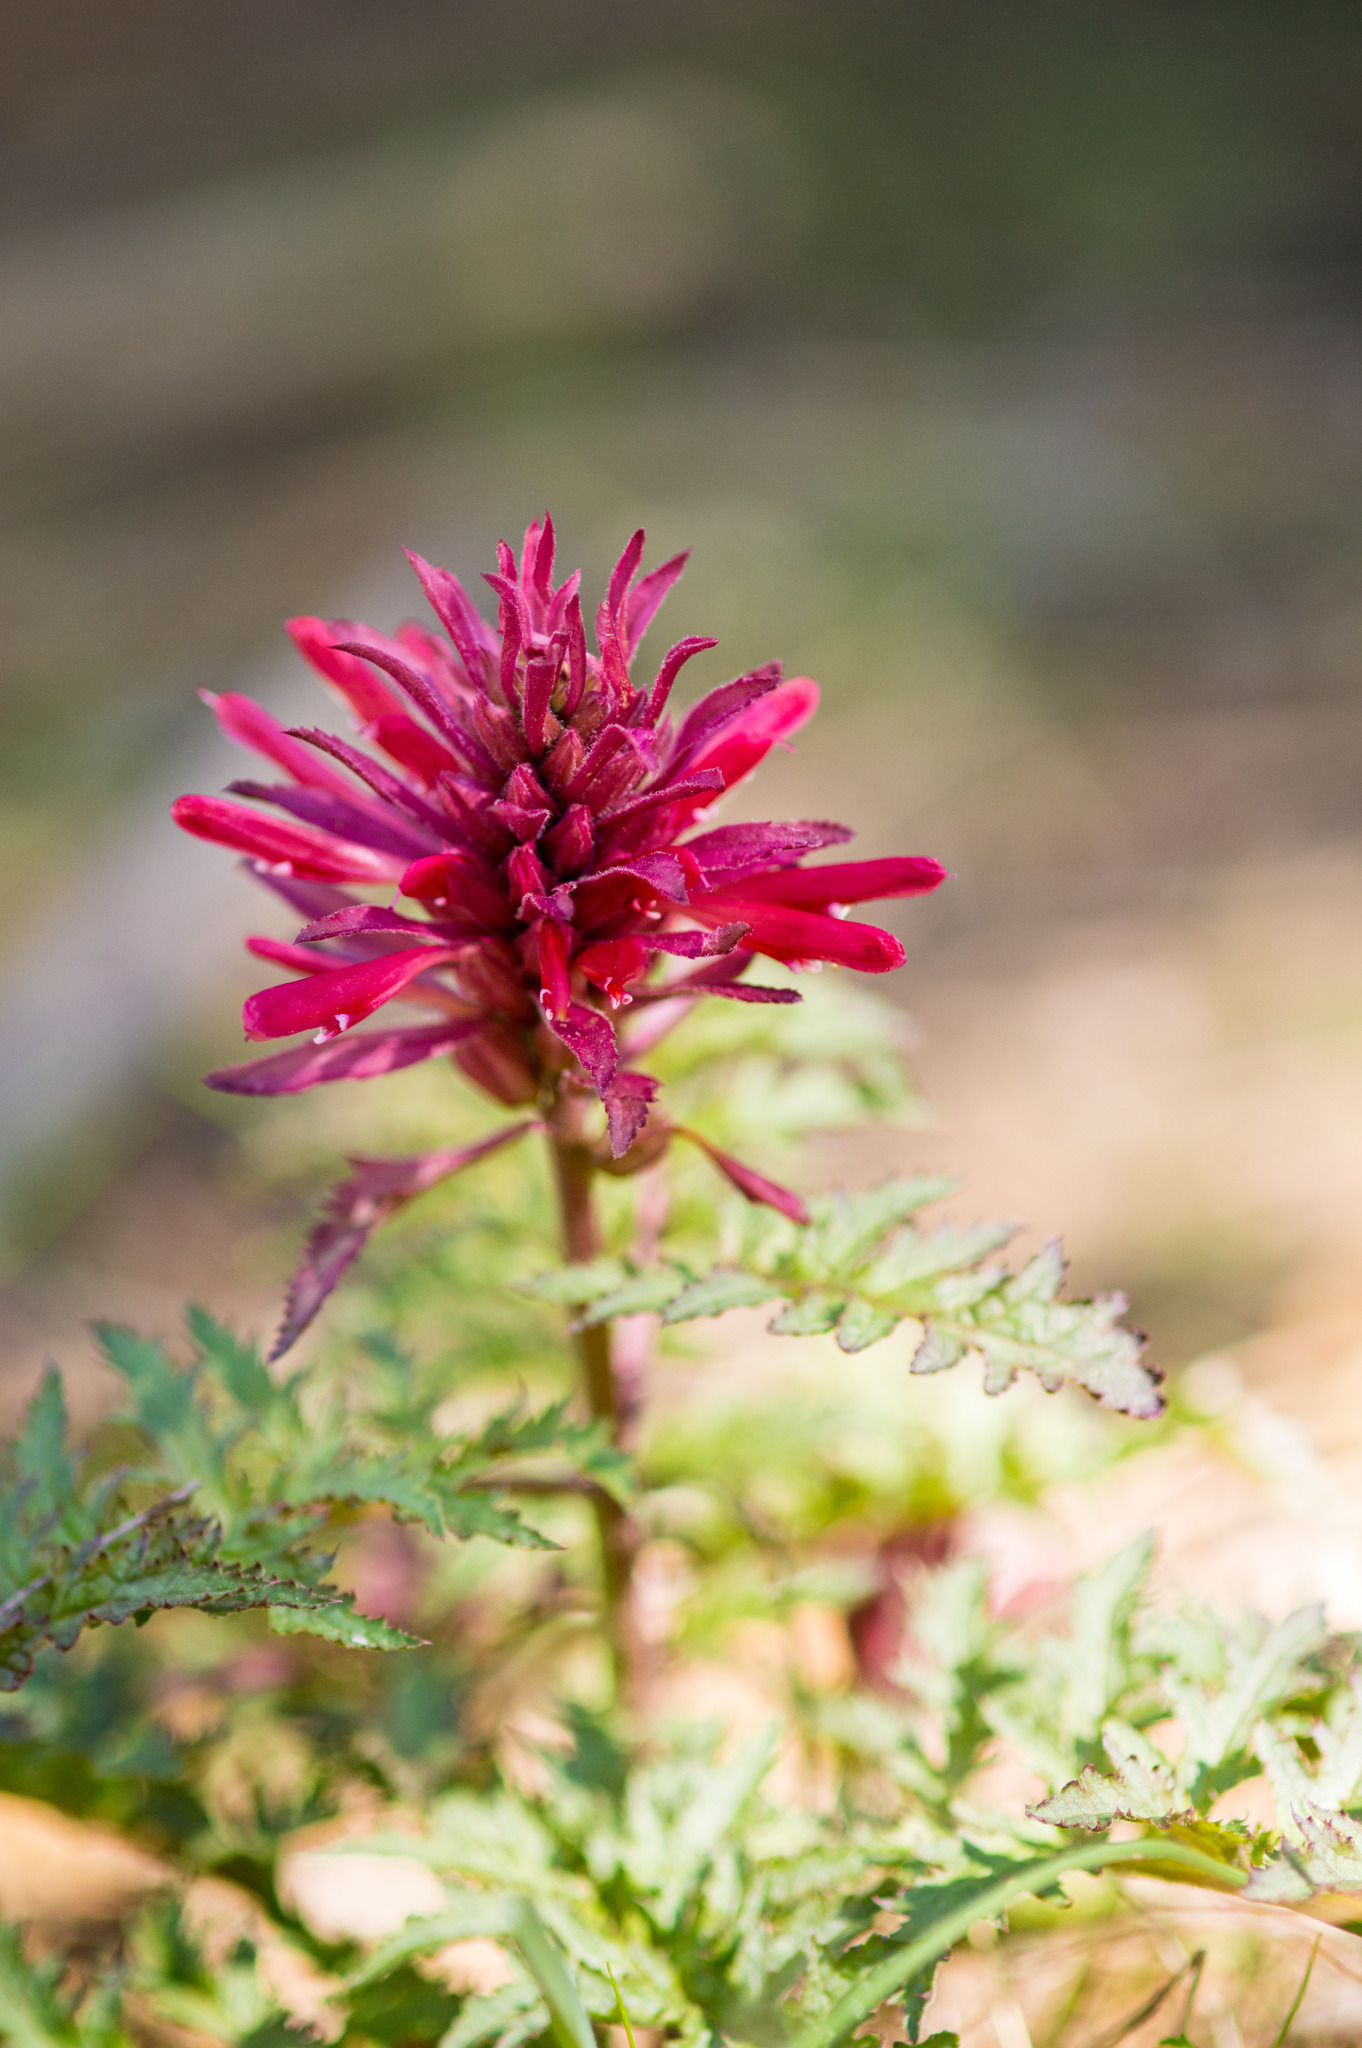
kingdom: Plantae
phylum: Tracheophyta
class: Magnoliopsida
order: Lamiales
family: Orobanchaceae
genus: Pedicularis
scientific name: Pedicularis densiflora
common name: Indian warrior
